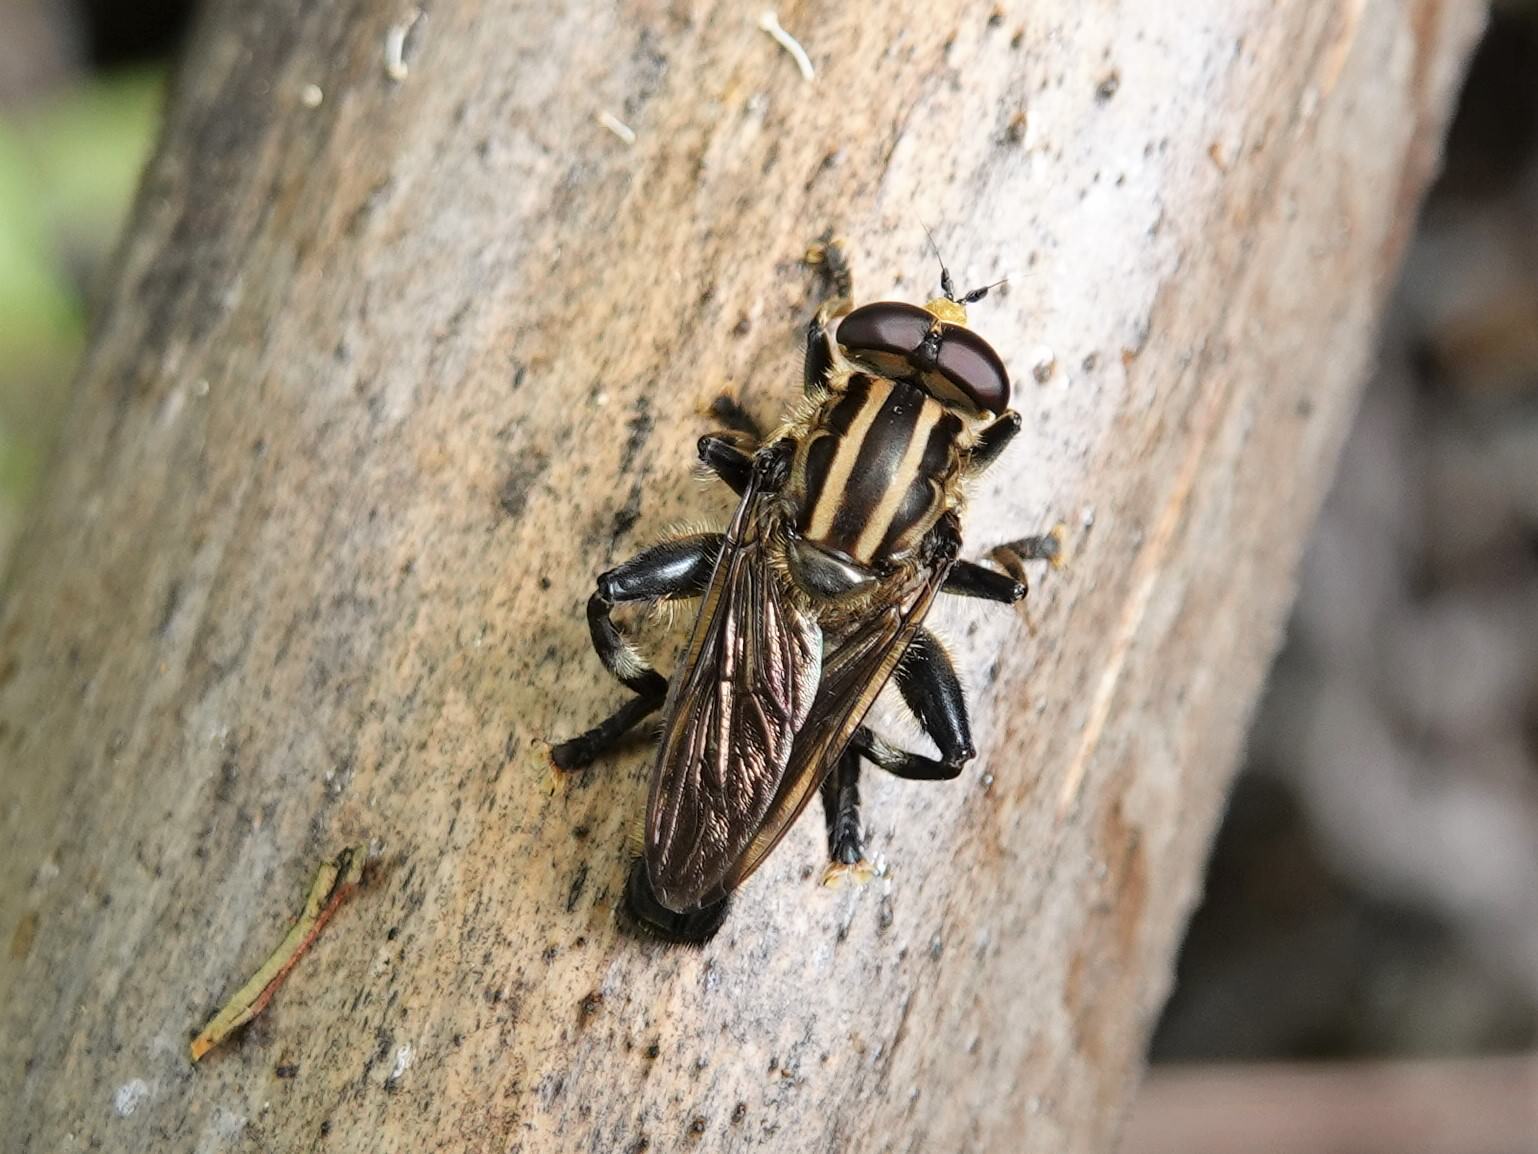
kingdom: Animalia
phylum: Arthropoda
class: Insecta
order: Diptera
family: Syrphidae
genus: Orthoprosopa
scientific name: Orthoprosopa bilineata
